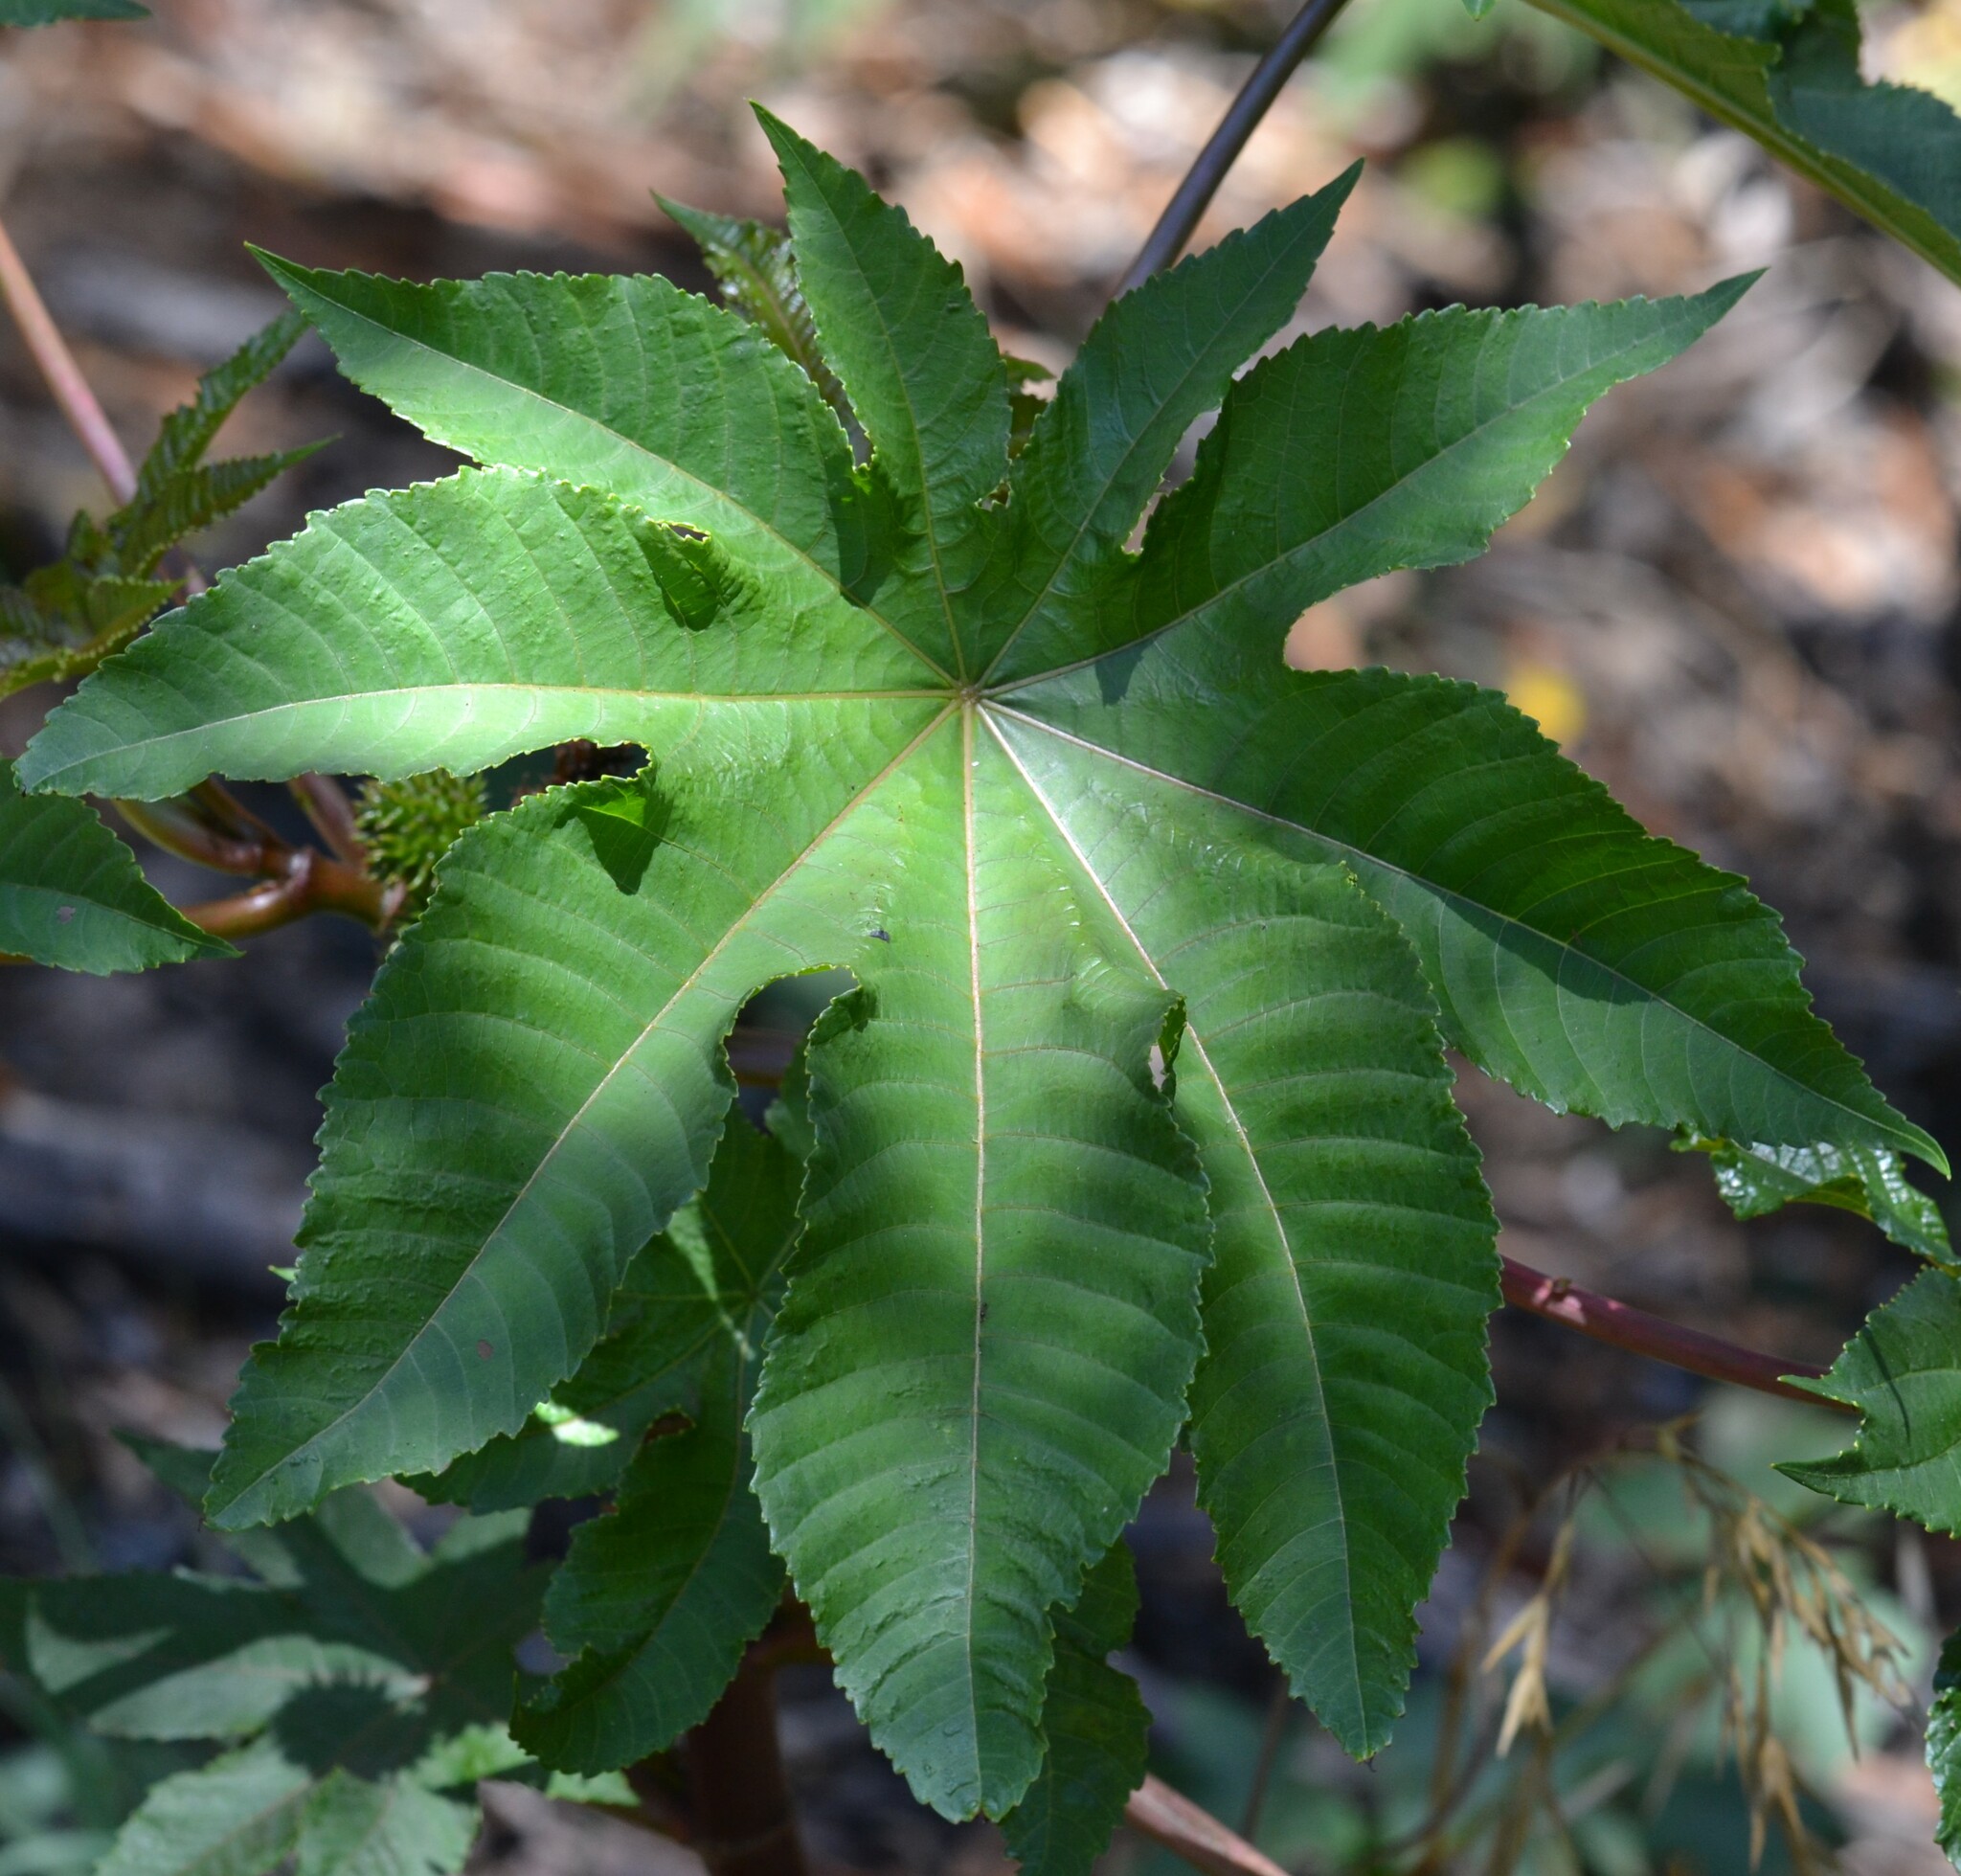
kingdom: Plantae
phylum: Tracheophyta
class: Magnoliopsida
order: Malpighiales
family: Euphorbiaceae
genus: Ricinus
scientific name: Ricinus communis
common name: Castor-oil-plant
